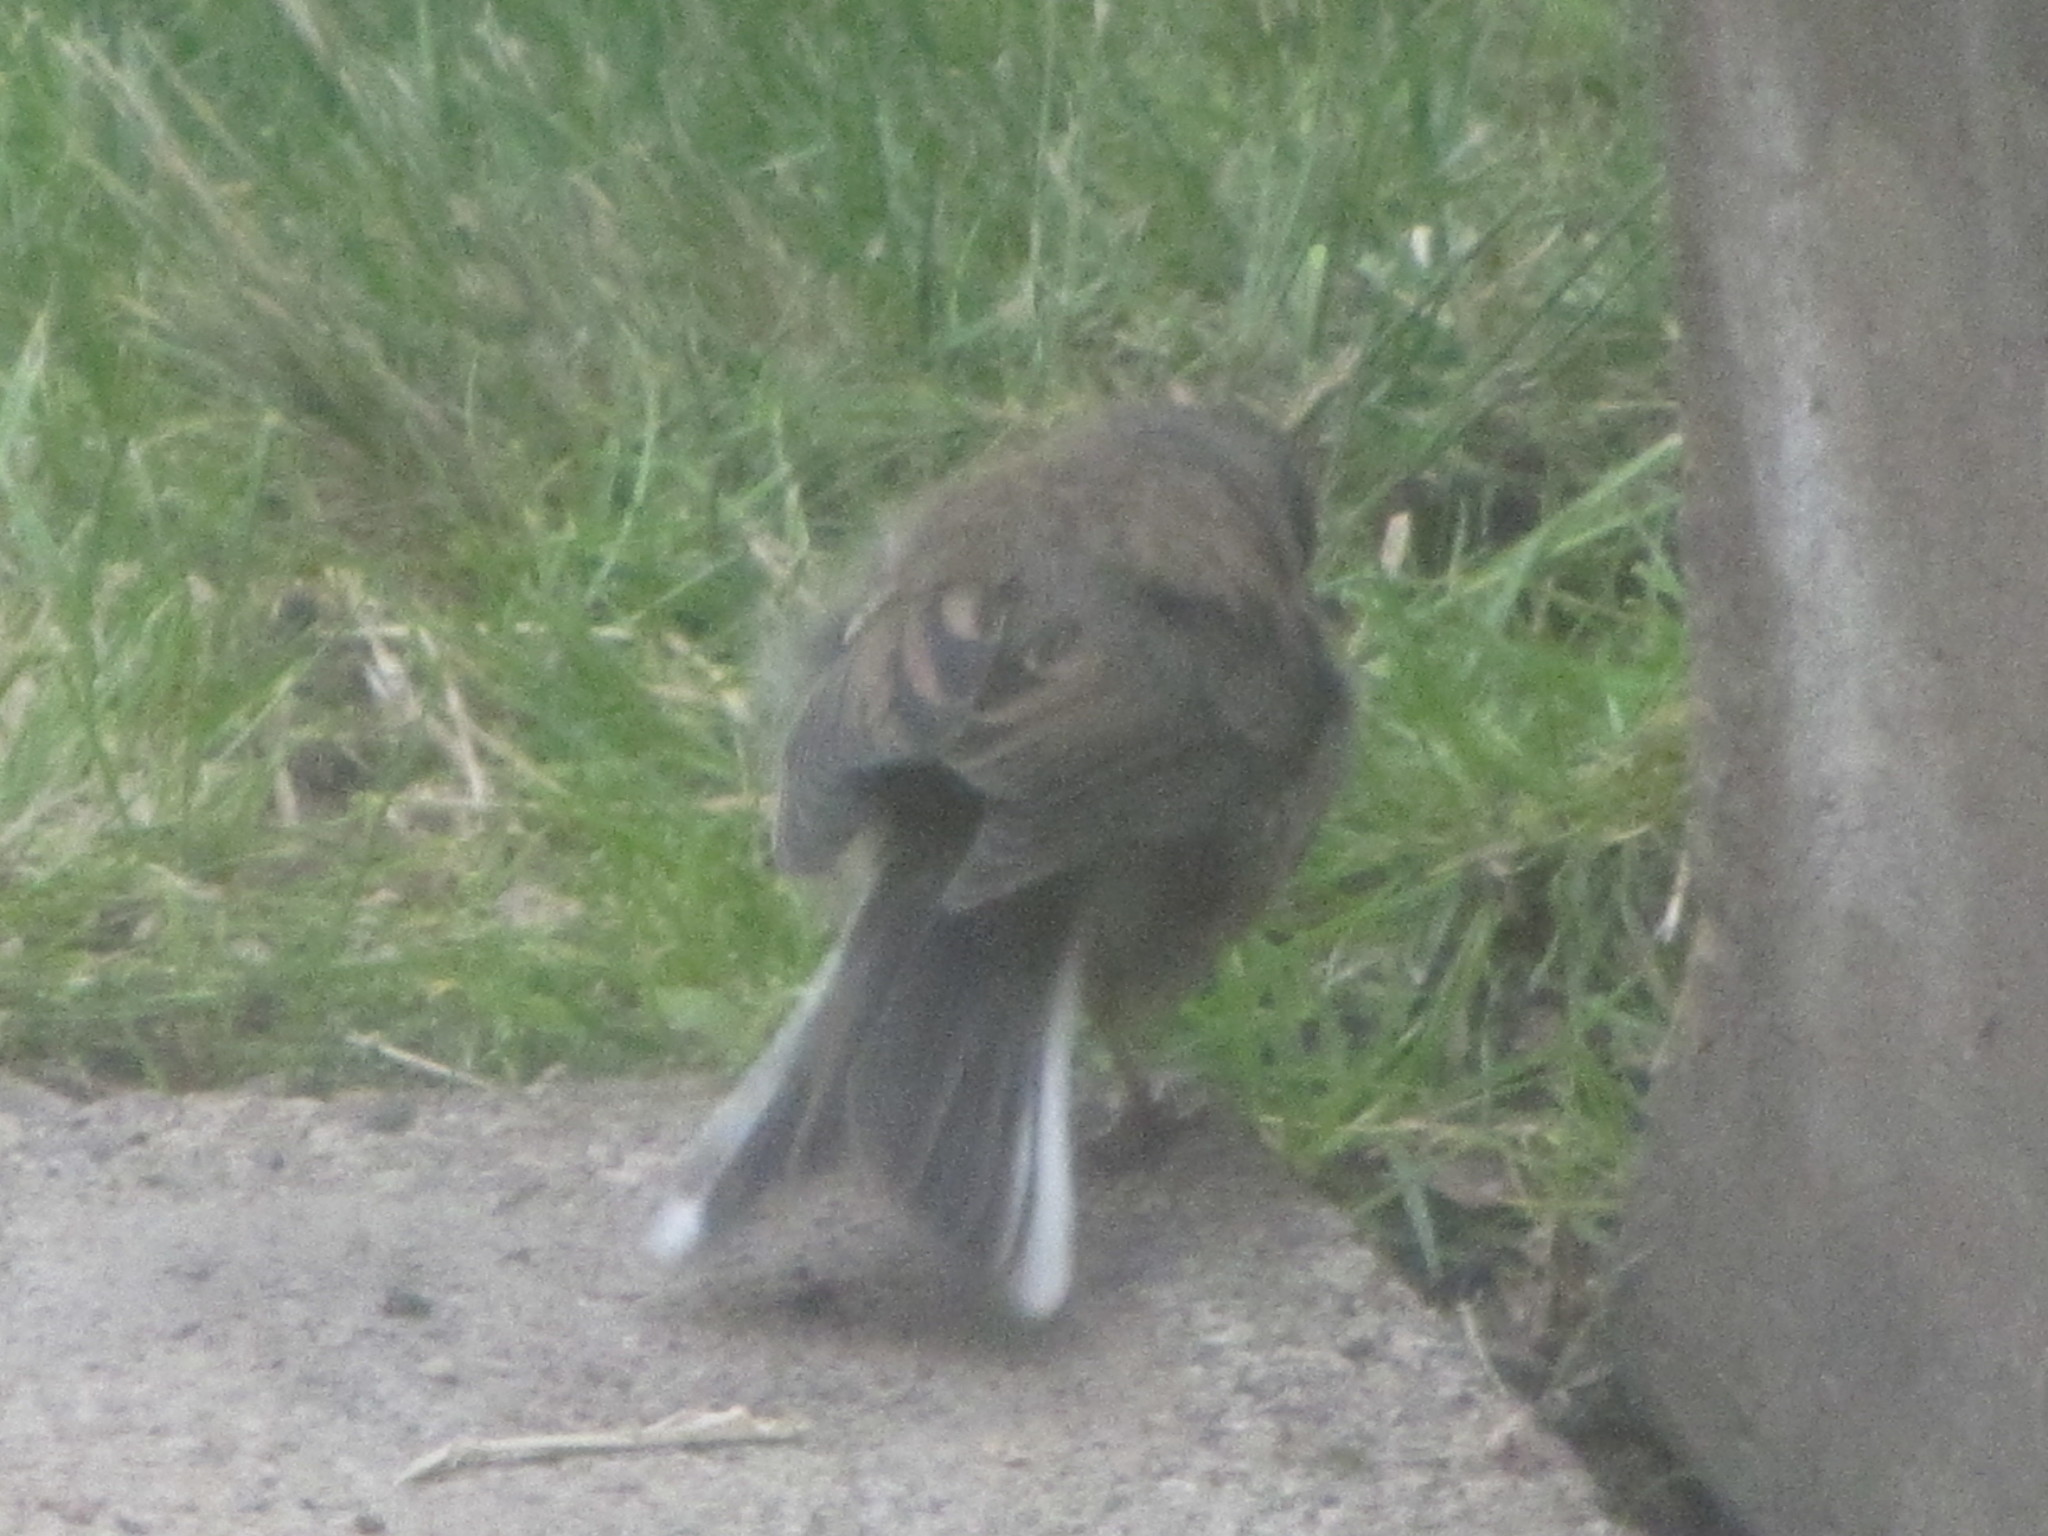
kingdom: Animalia
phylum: Chordata
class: Aves
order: Passeriformes
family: Passerellidae
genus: Junco
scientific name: Junco hyemalis
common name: Dark-eyed junco
